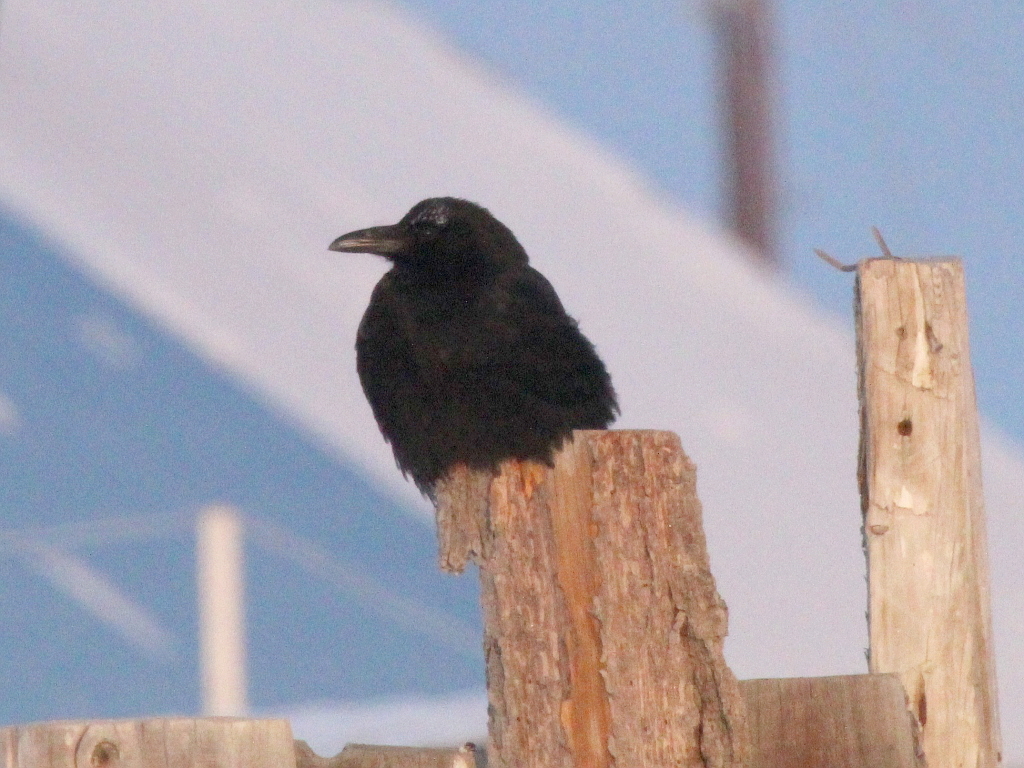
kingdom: Animalia
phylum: Chordata
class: Aves
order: Passeriformes
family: Corvidae
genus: Corvus
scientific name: Corvus corone
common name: Carrion crow
